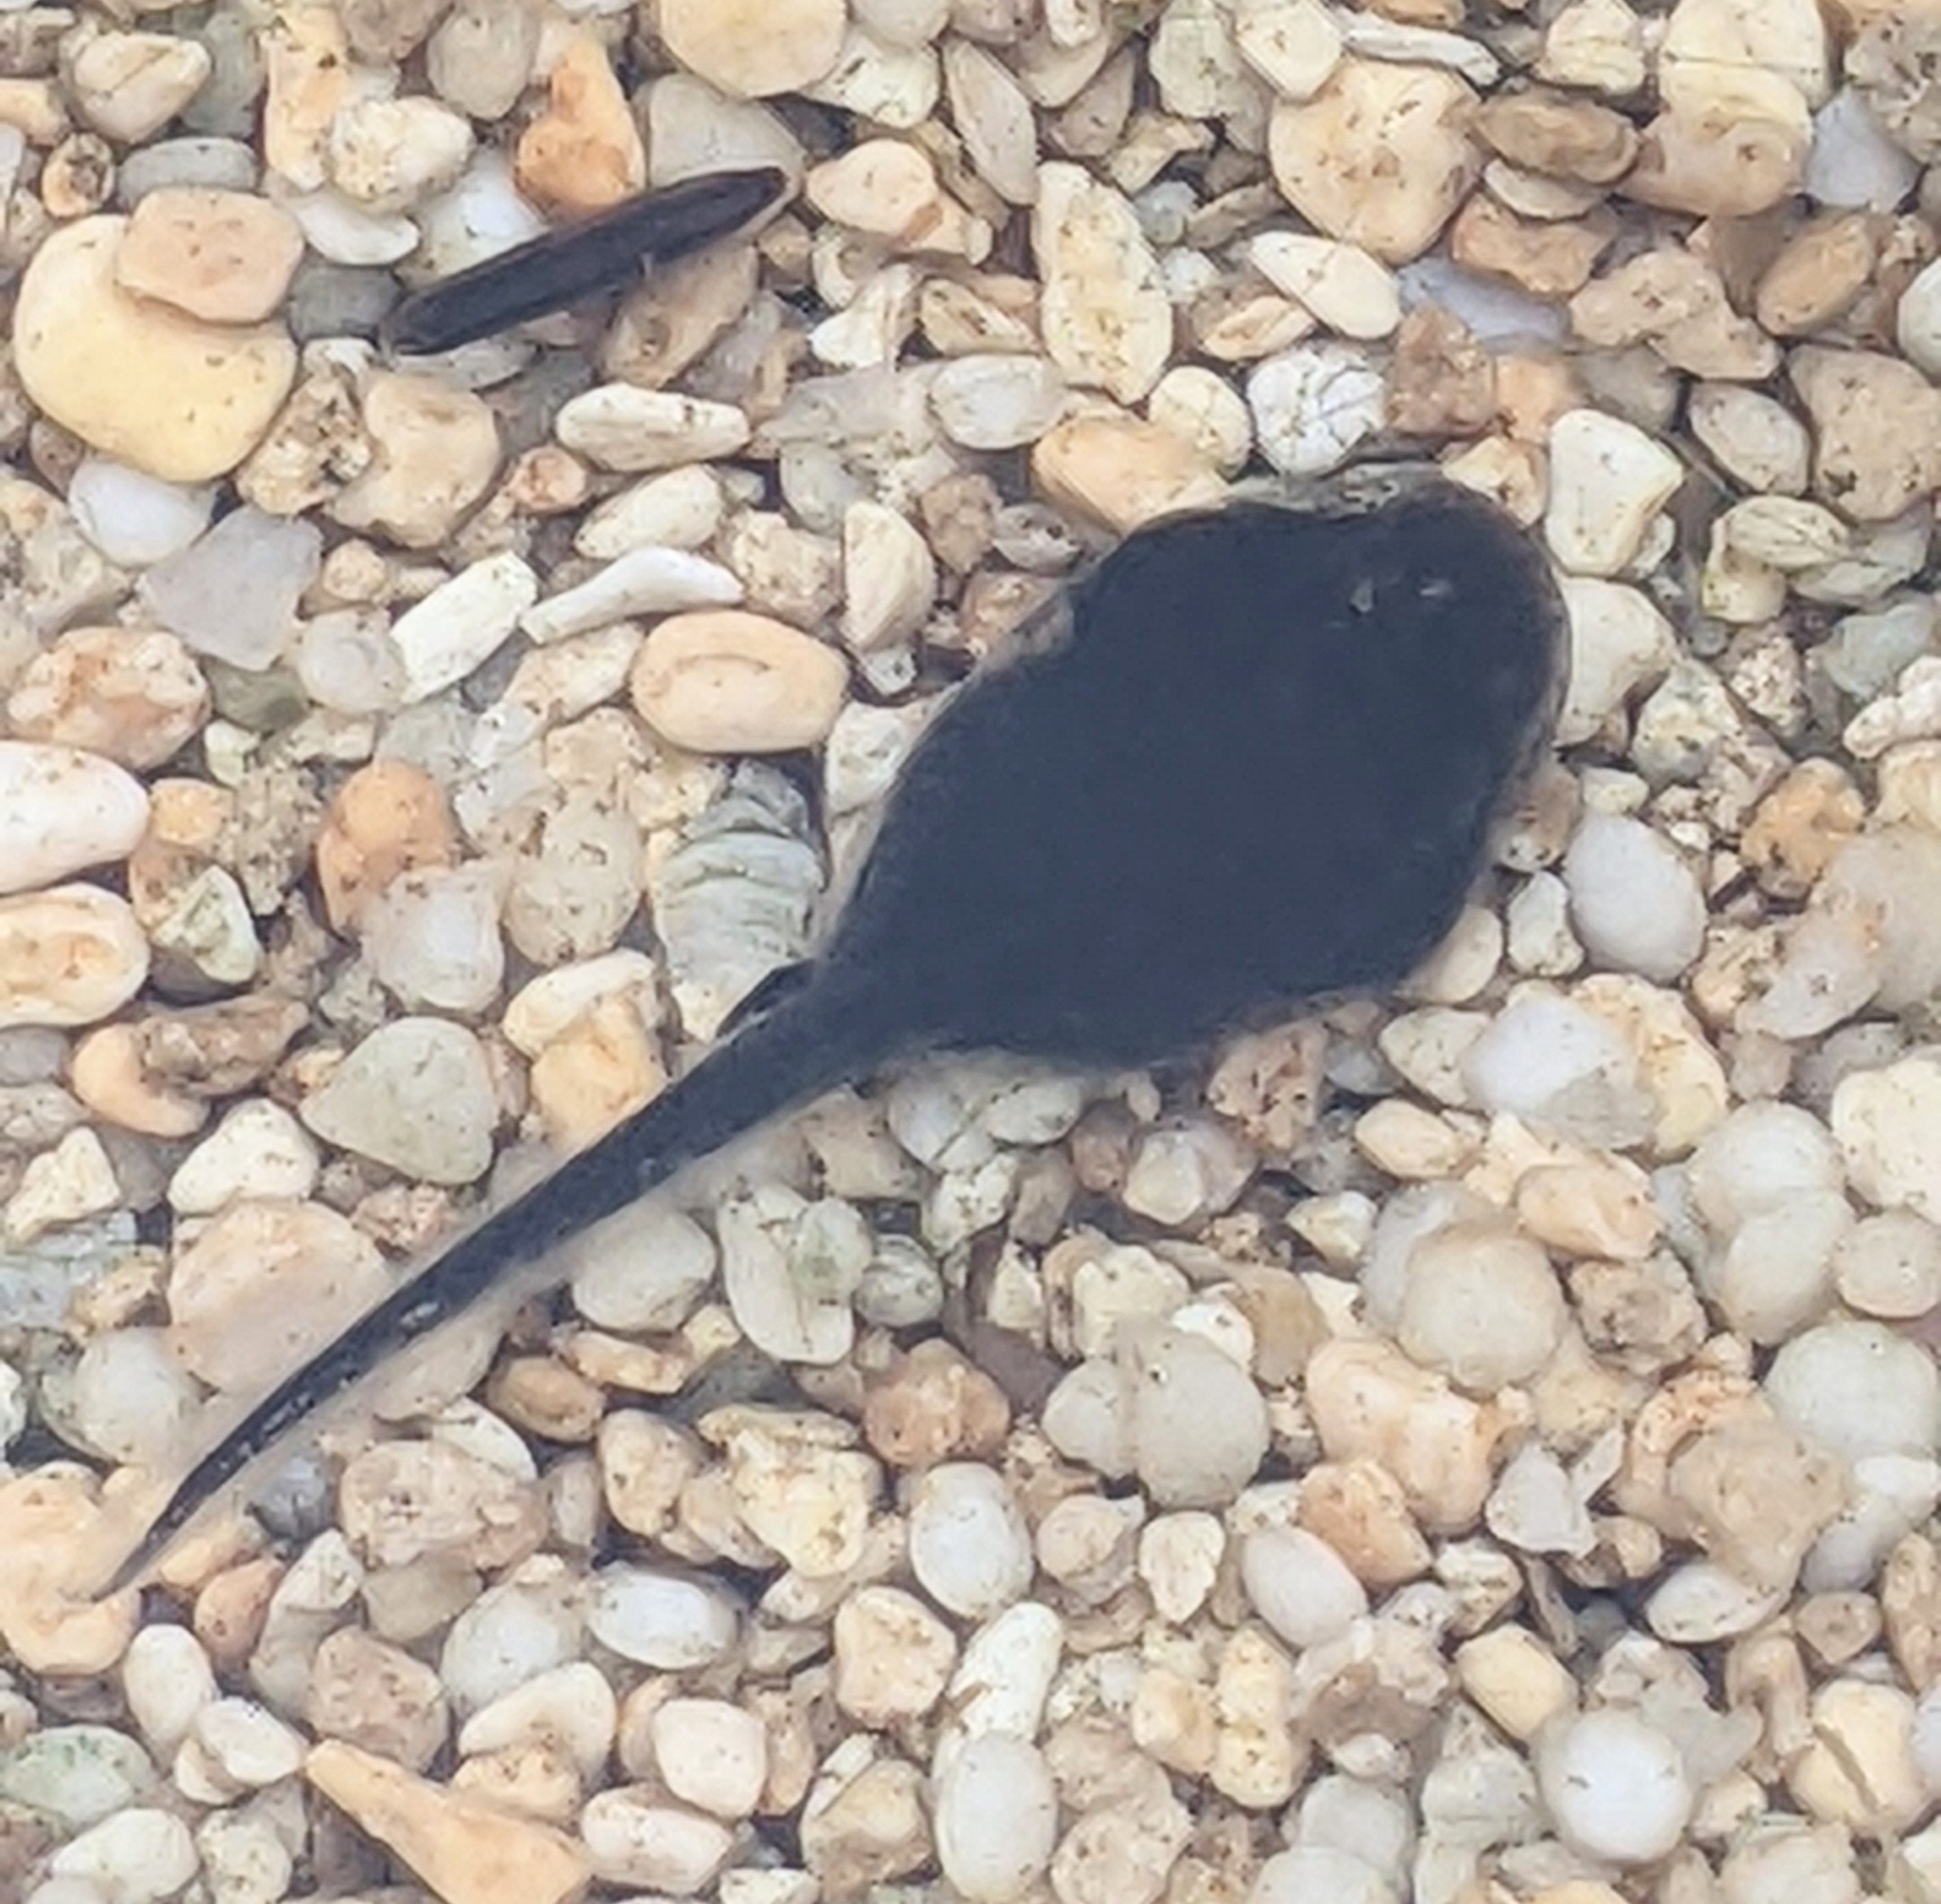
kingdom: Animalia
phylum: Chordata
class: Amphibia
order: Anura
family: Bufonidae
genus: Rhinella
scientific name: Rhinella marina
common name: Cane toad
